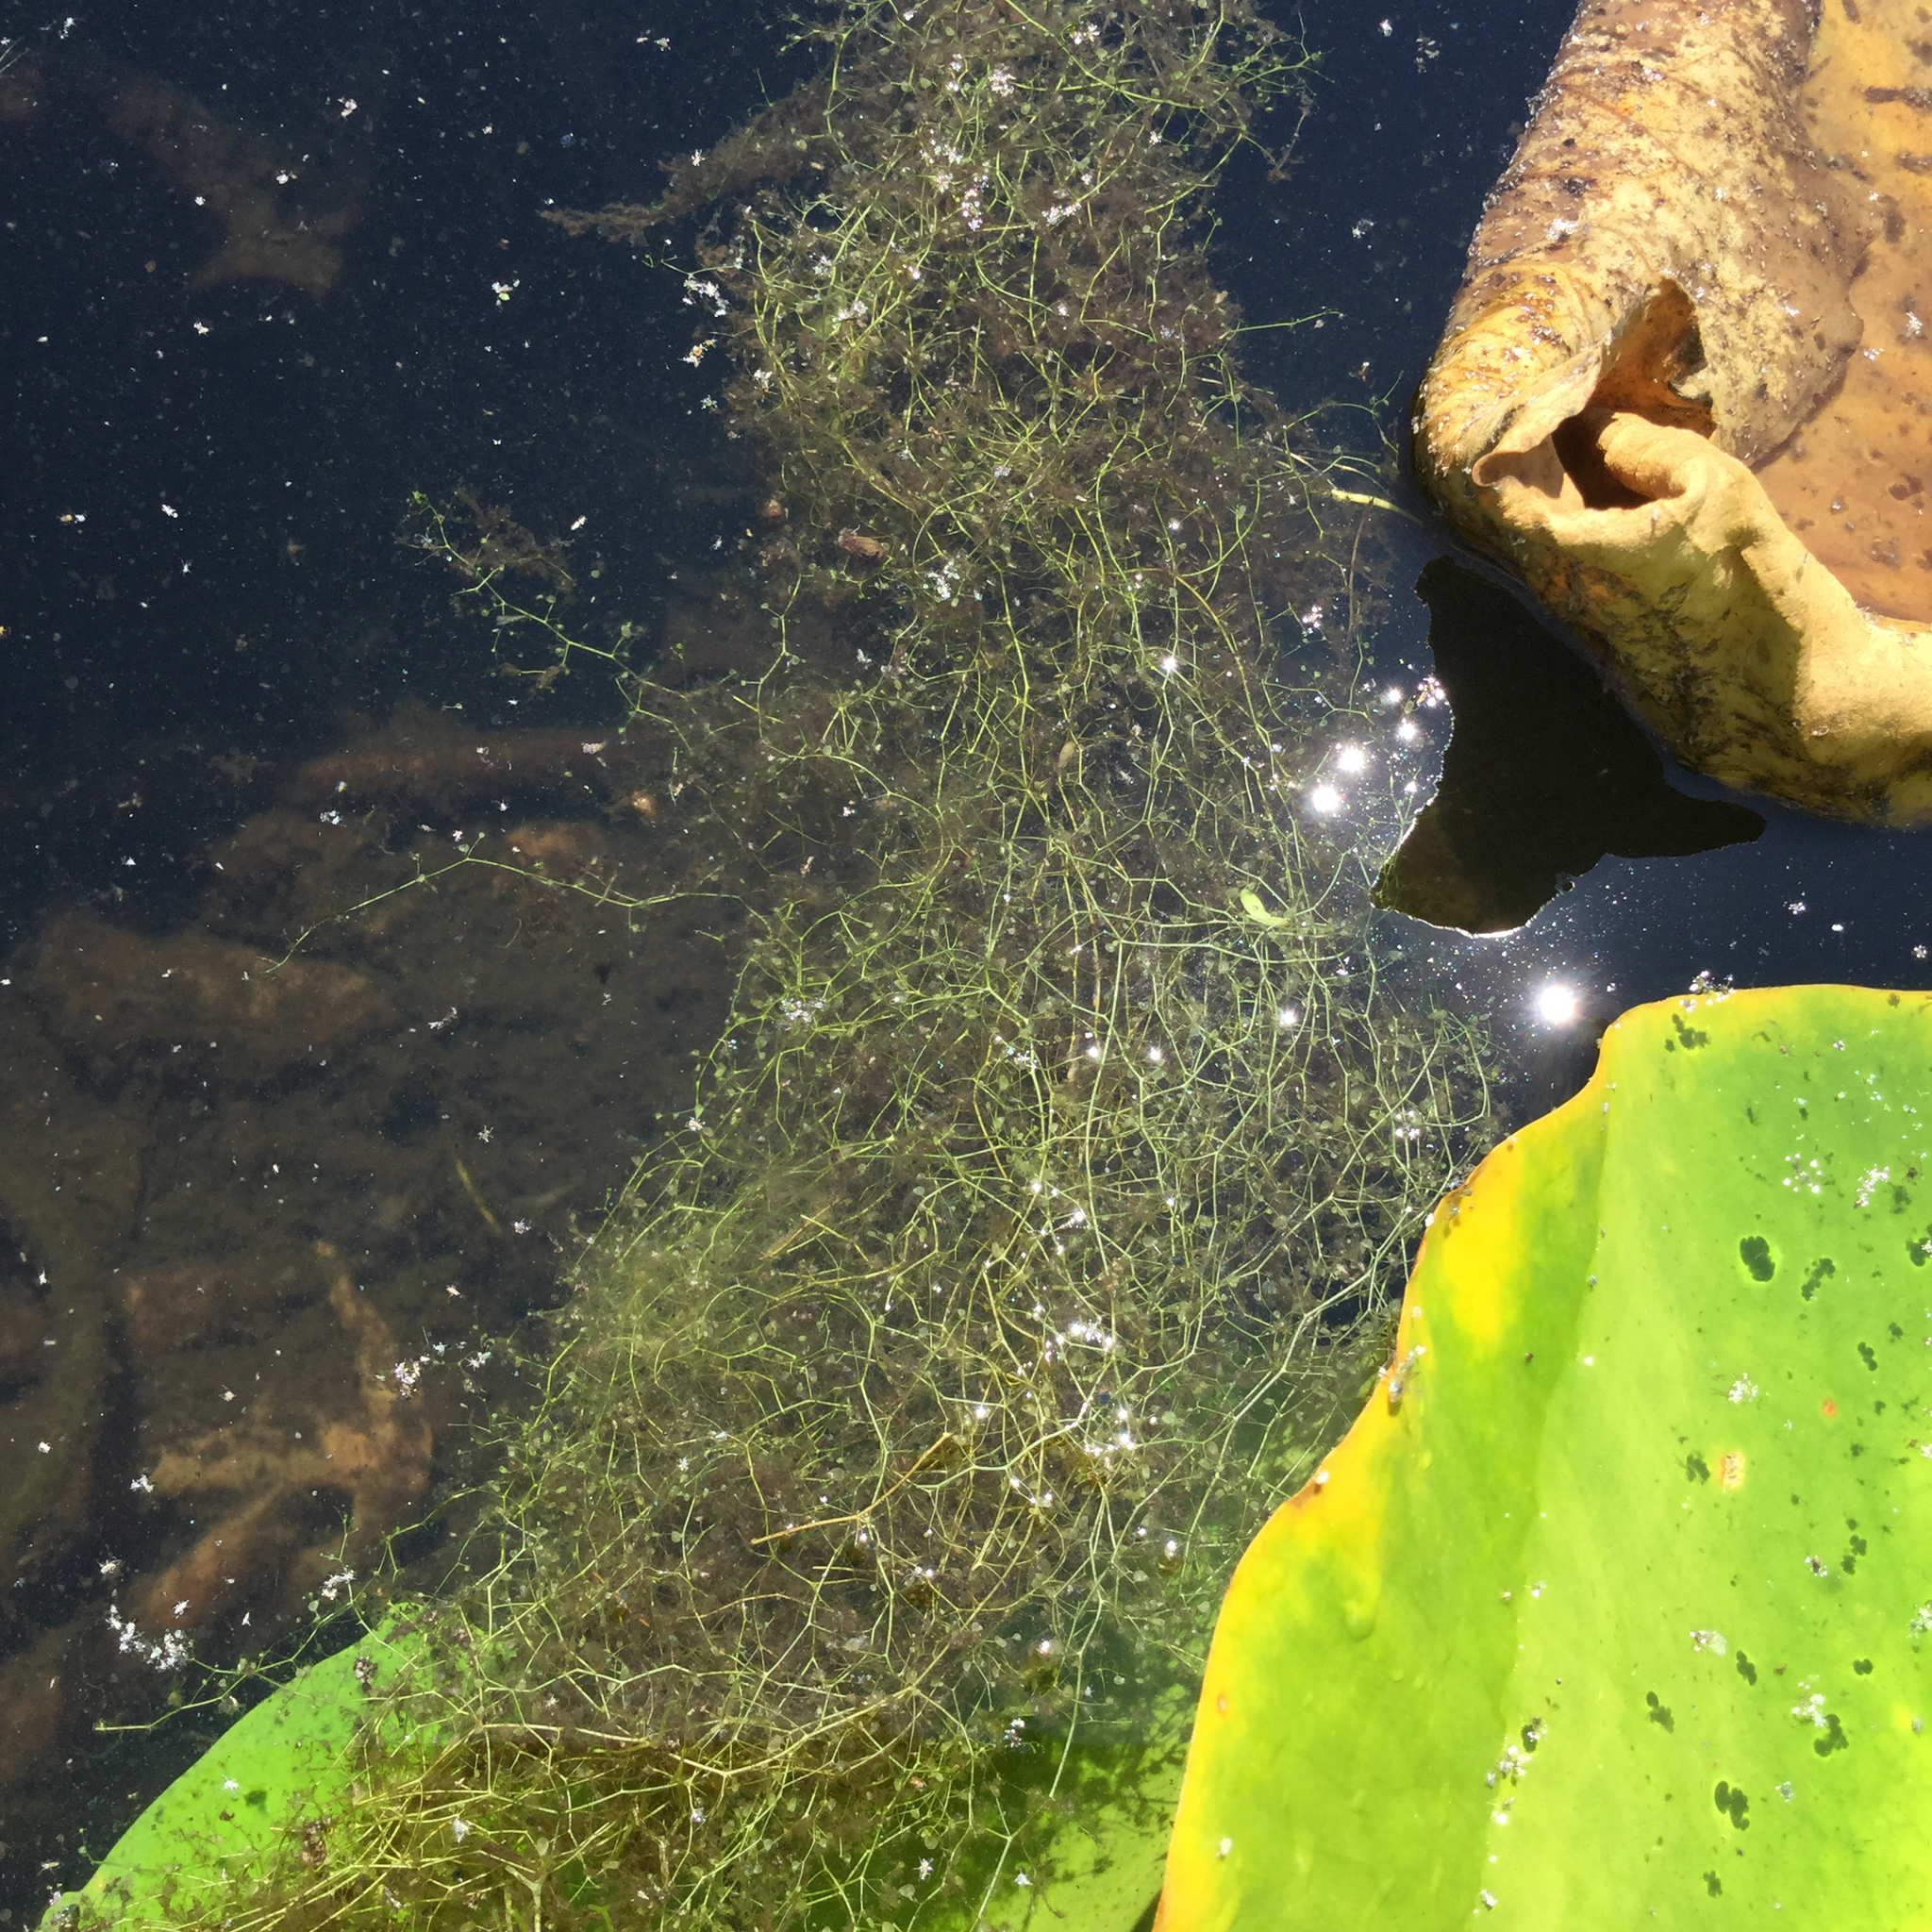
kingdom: Plantae
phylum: Tracheophyta
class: Magnoliopsida
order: Lamiales
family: Lentibulariaceae
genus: Utricularia
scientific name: Utricularia gibba
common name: Humped bladderwort
